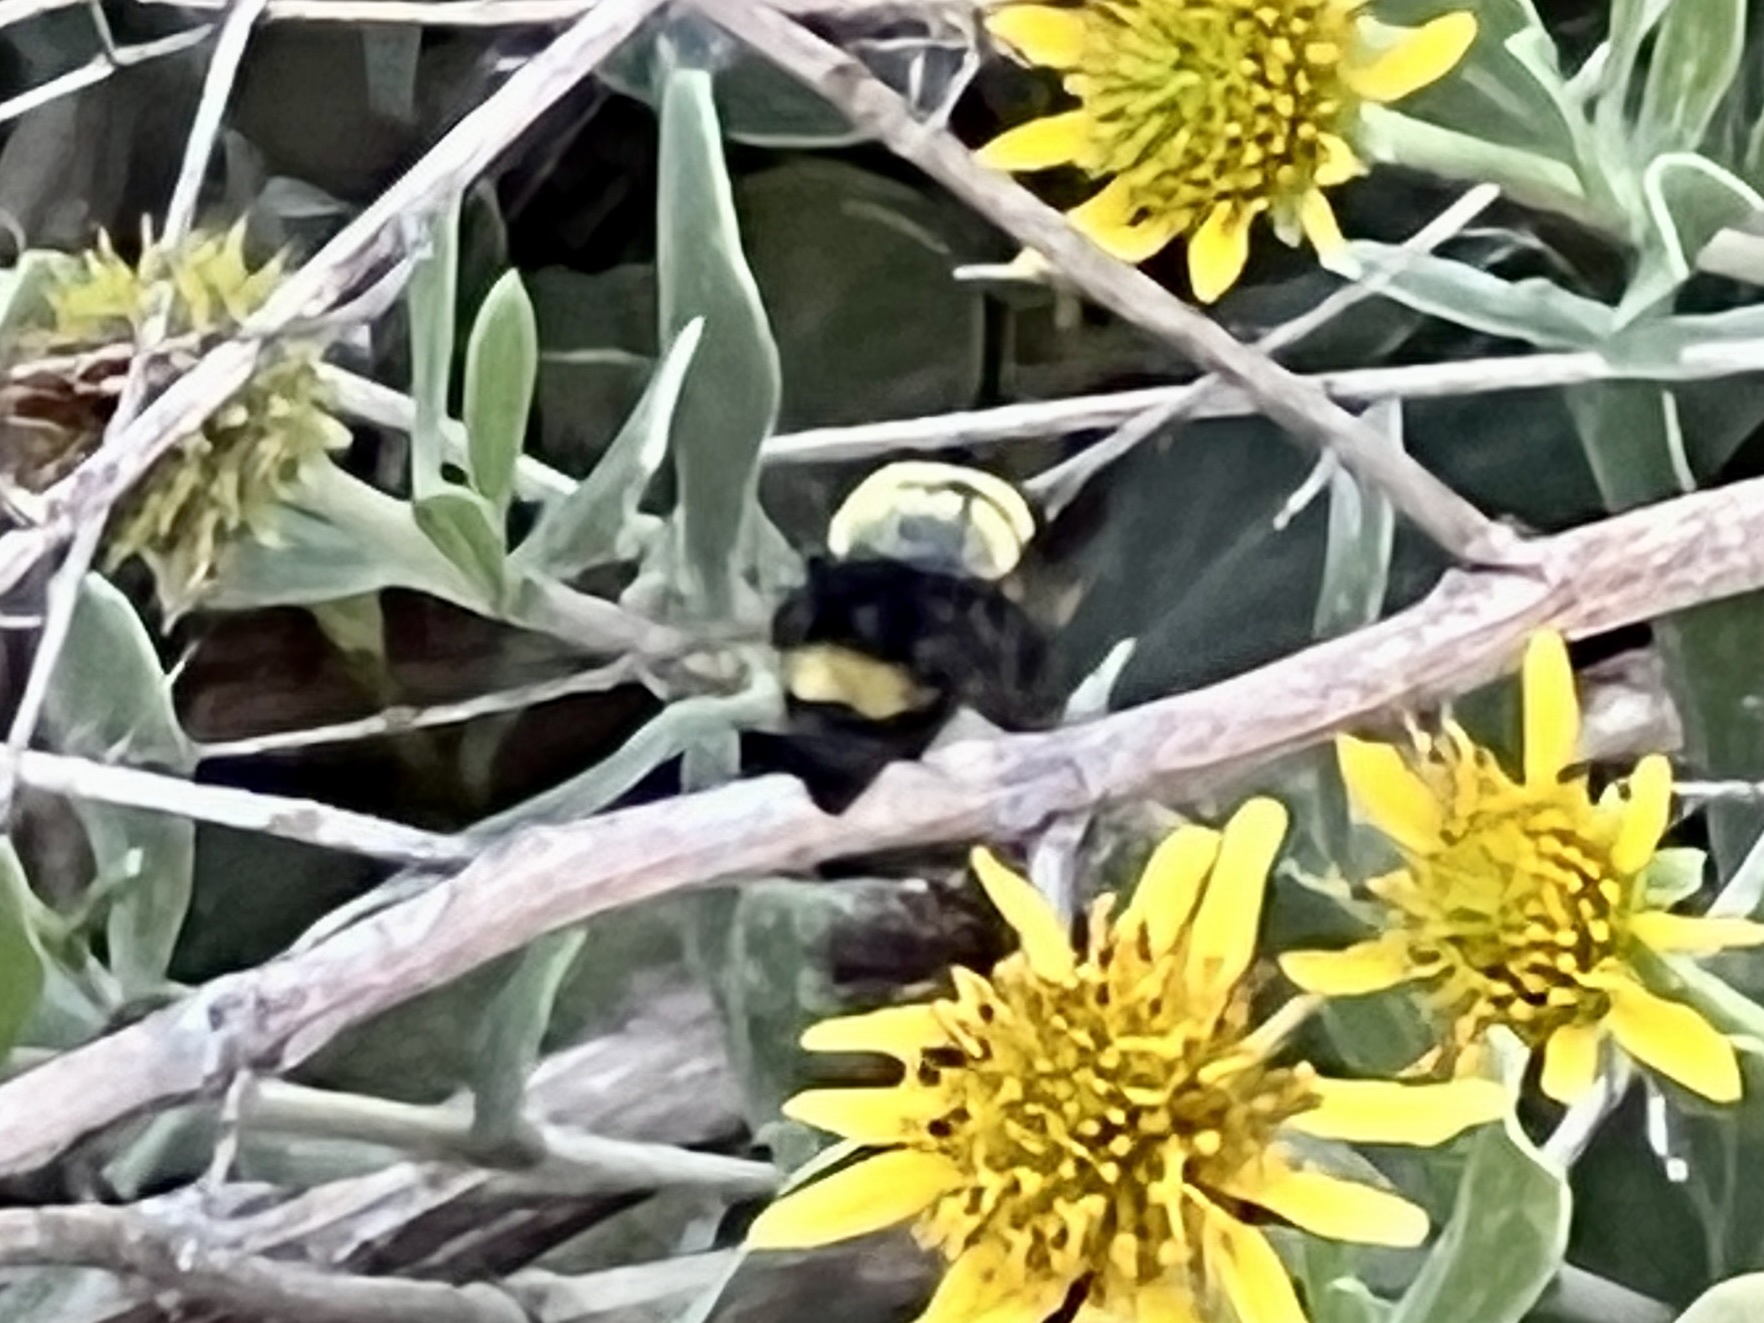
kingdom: Animalia
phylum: Arthropoda
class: Insecta
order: Hymenoptera
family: Apidae
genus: Bombus
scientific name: Bombus pensylvanicus
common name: Bumble bee
